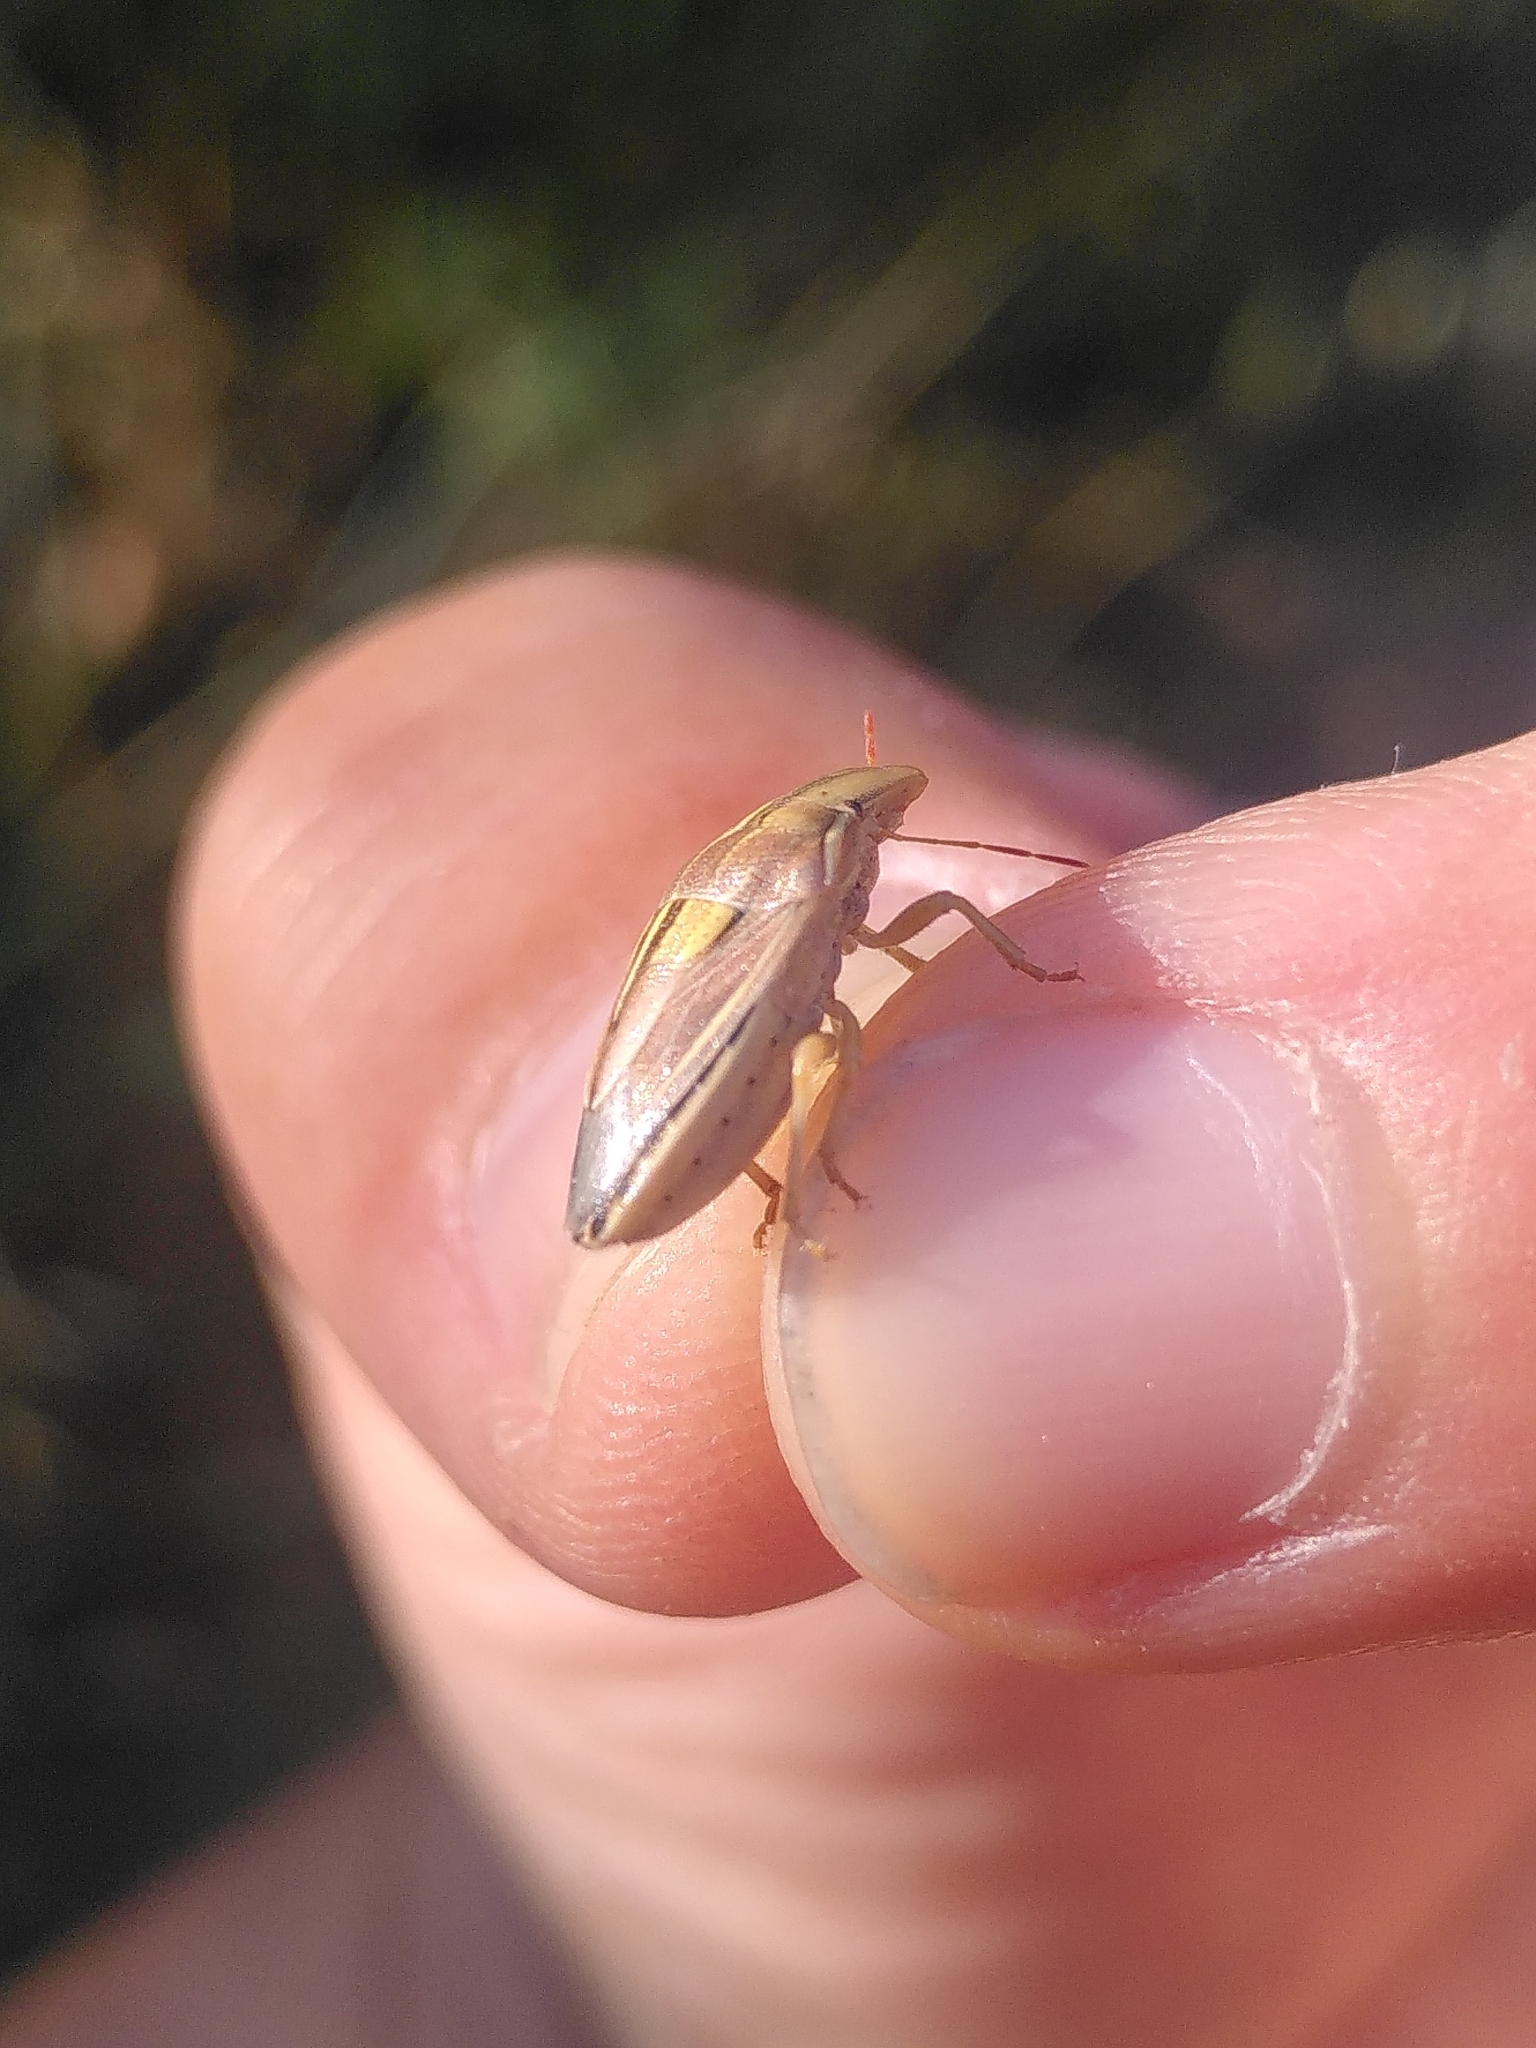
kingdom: Animalia
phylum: Arthropoda
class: Insecta
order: Hemiptera
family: Pentatomidae
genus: Aelia
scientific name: Aelia rostrata
